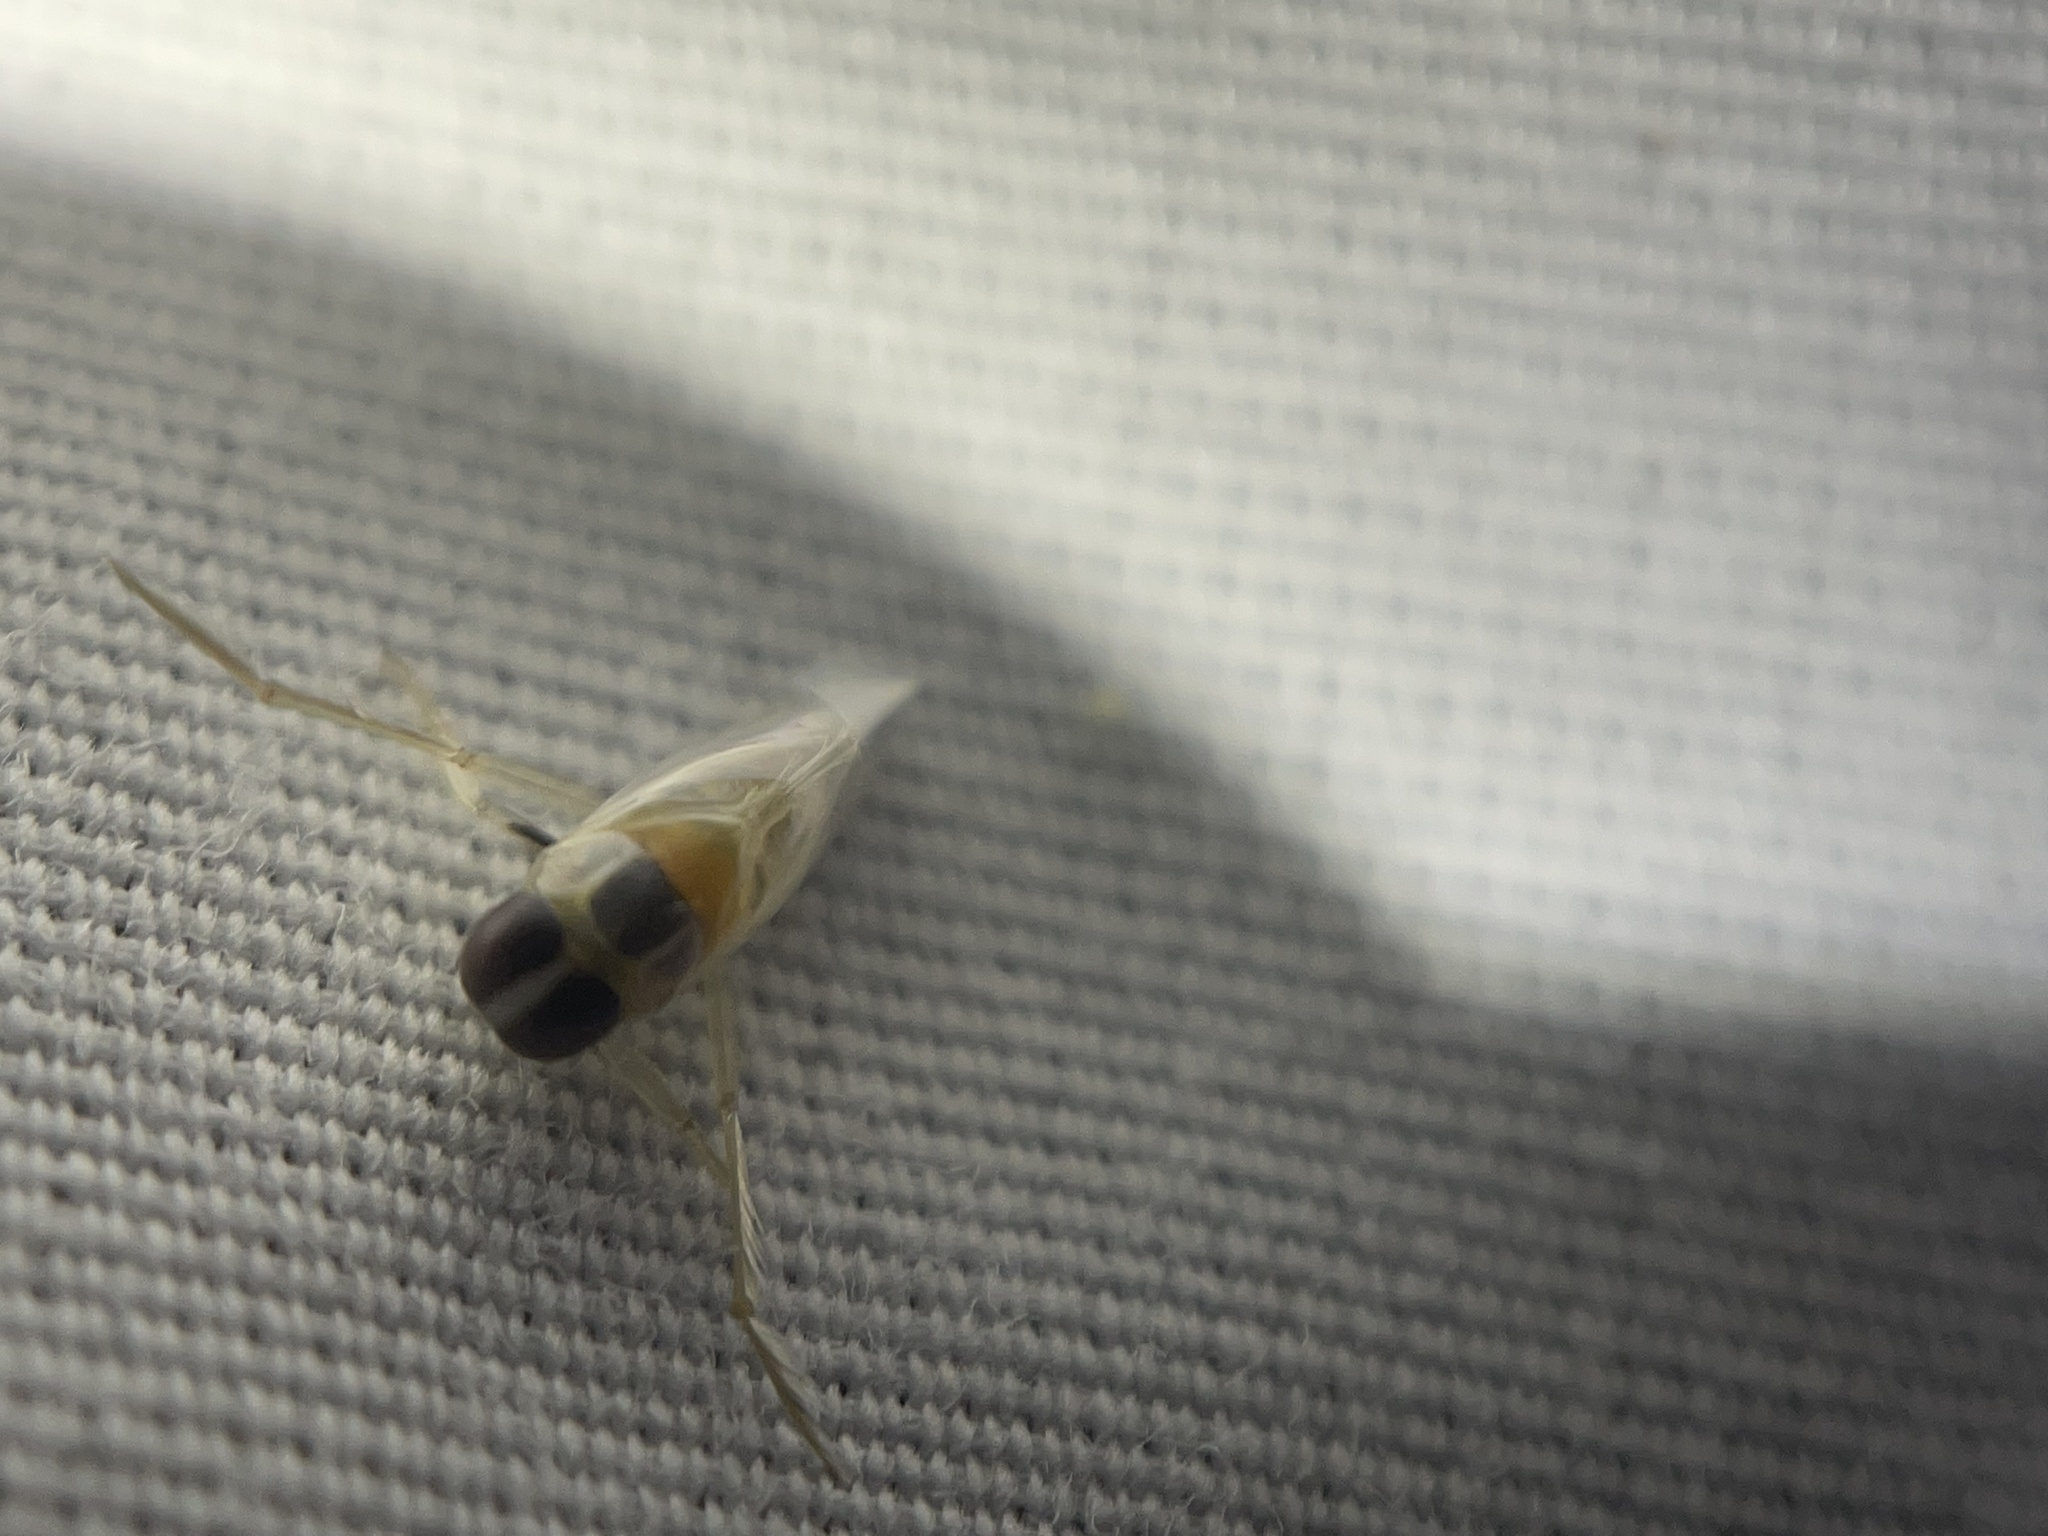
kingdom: Animalia
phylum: Arthropoda
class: Insecta
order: Hemiptera
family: Notonectidae
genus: Buenoa
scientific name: Buenoa
